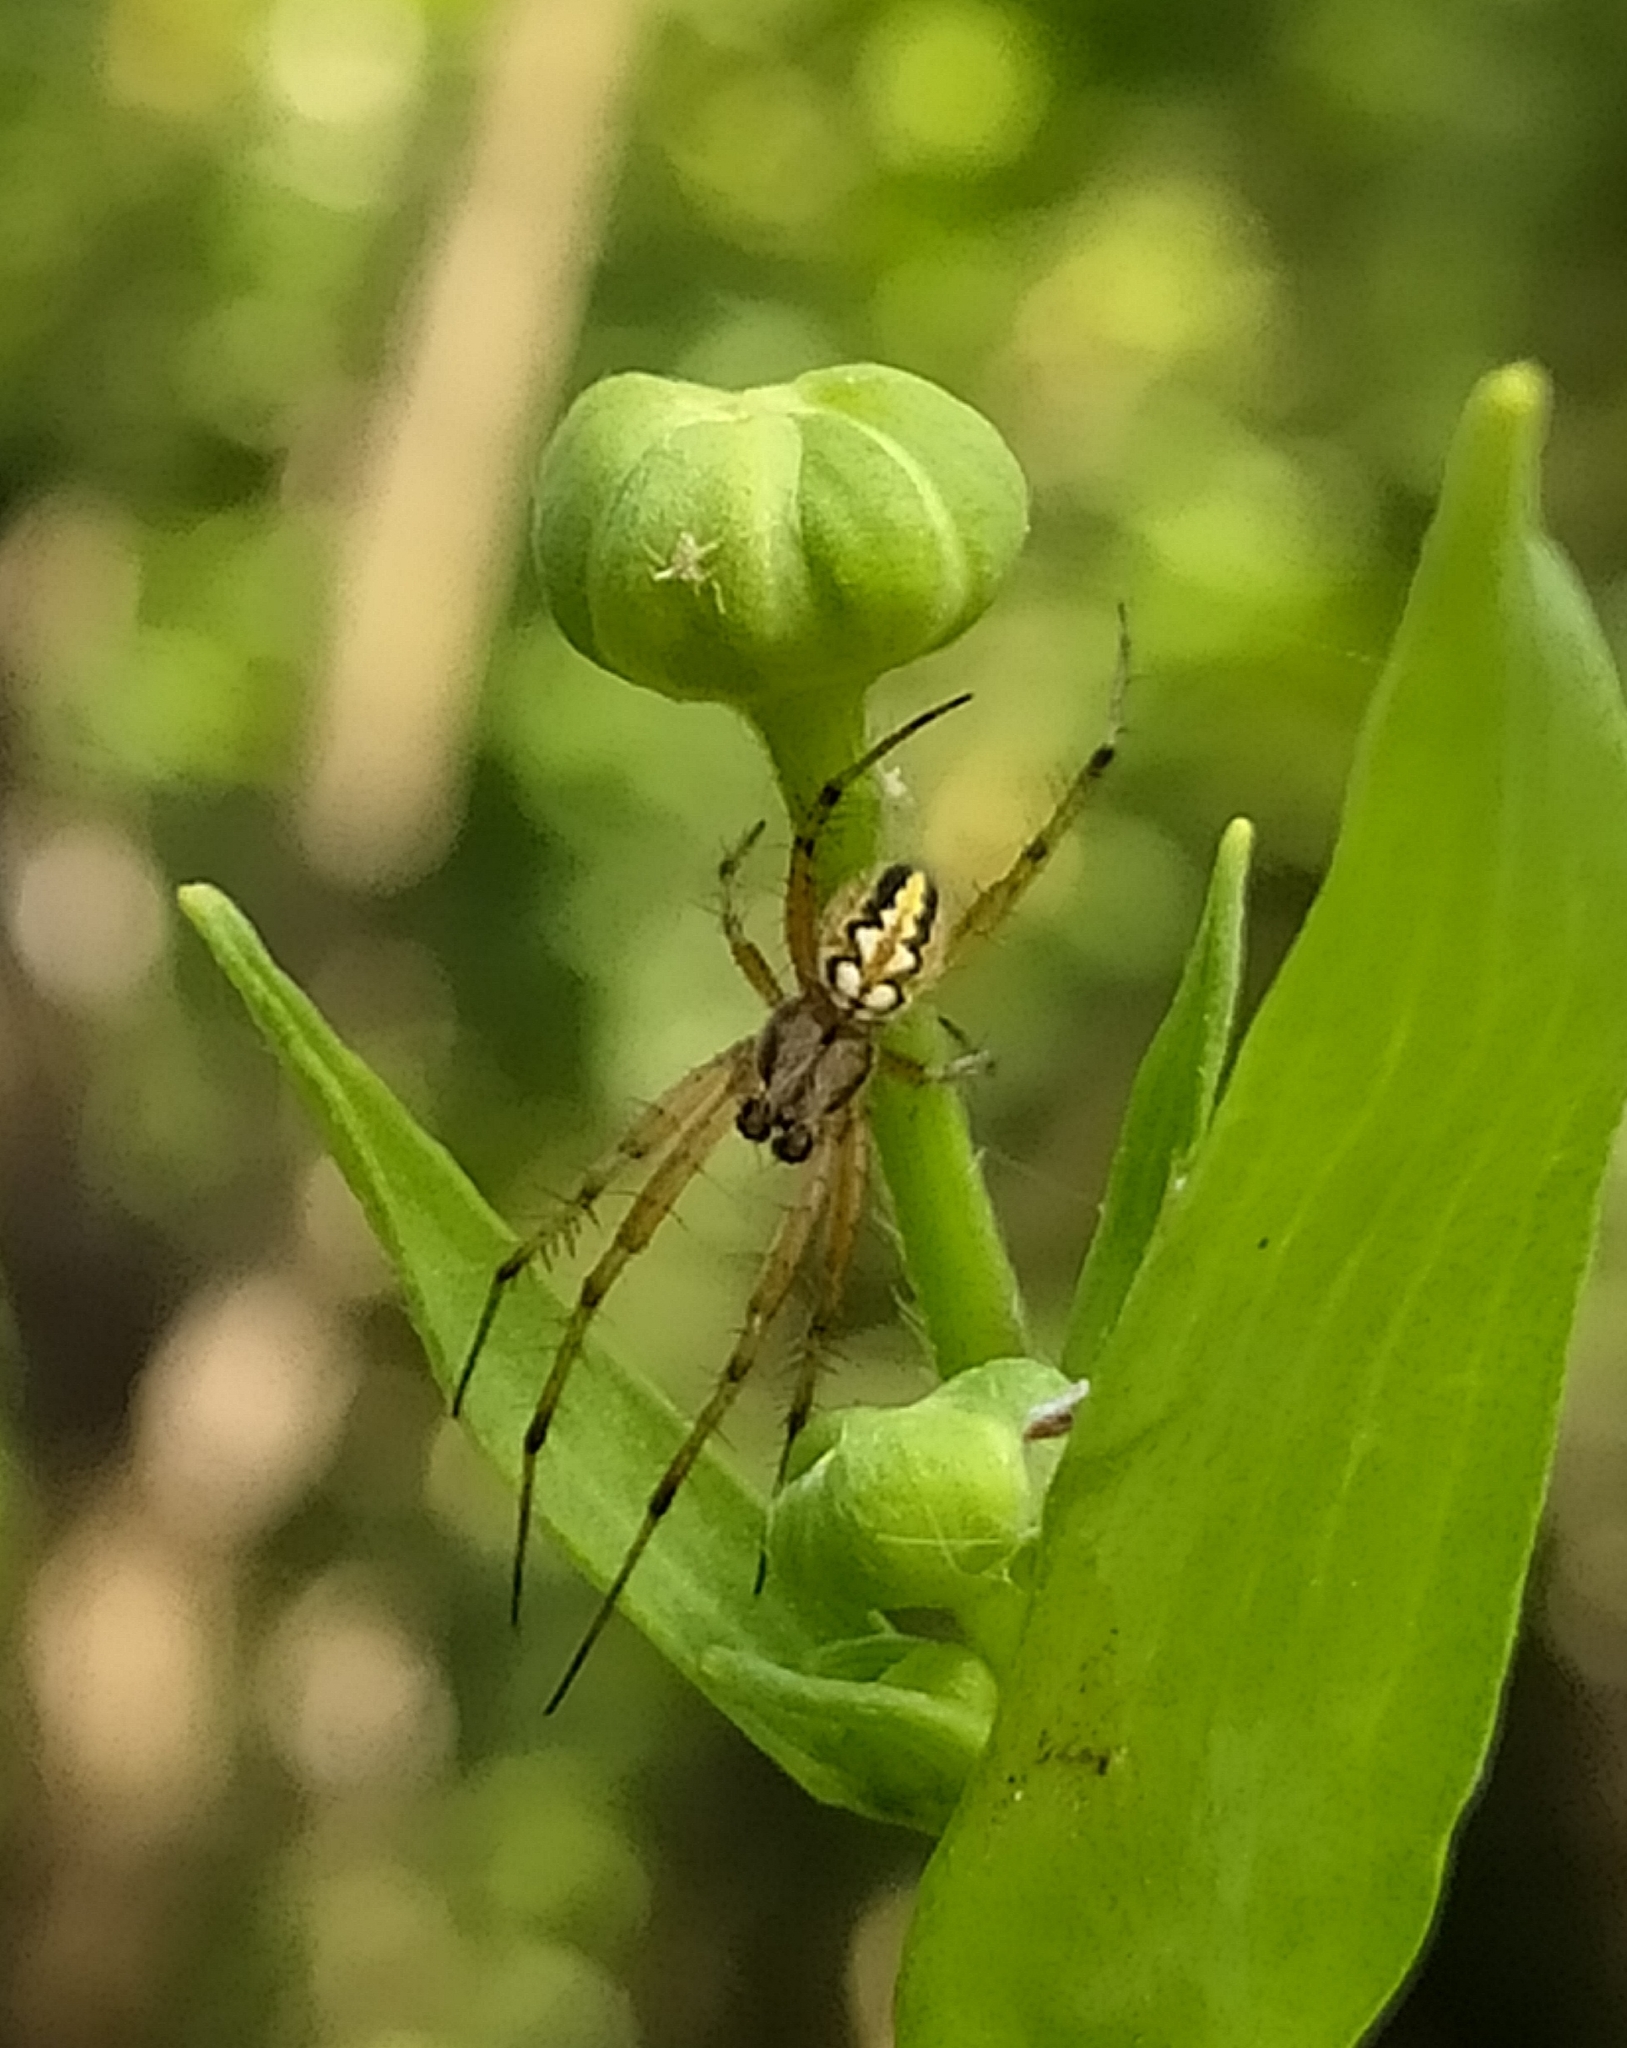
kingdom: Animalia
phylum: Arthropoda
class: Arachnida
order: Araneae
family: Araneidae
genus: Neoscona
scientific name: Neoscona adianta
